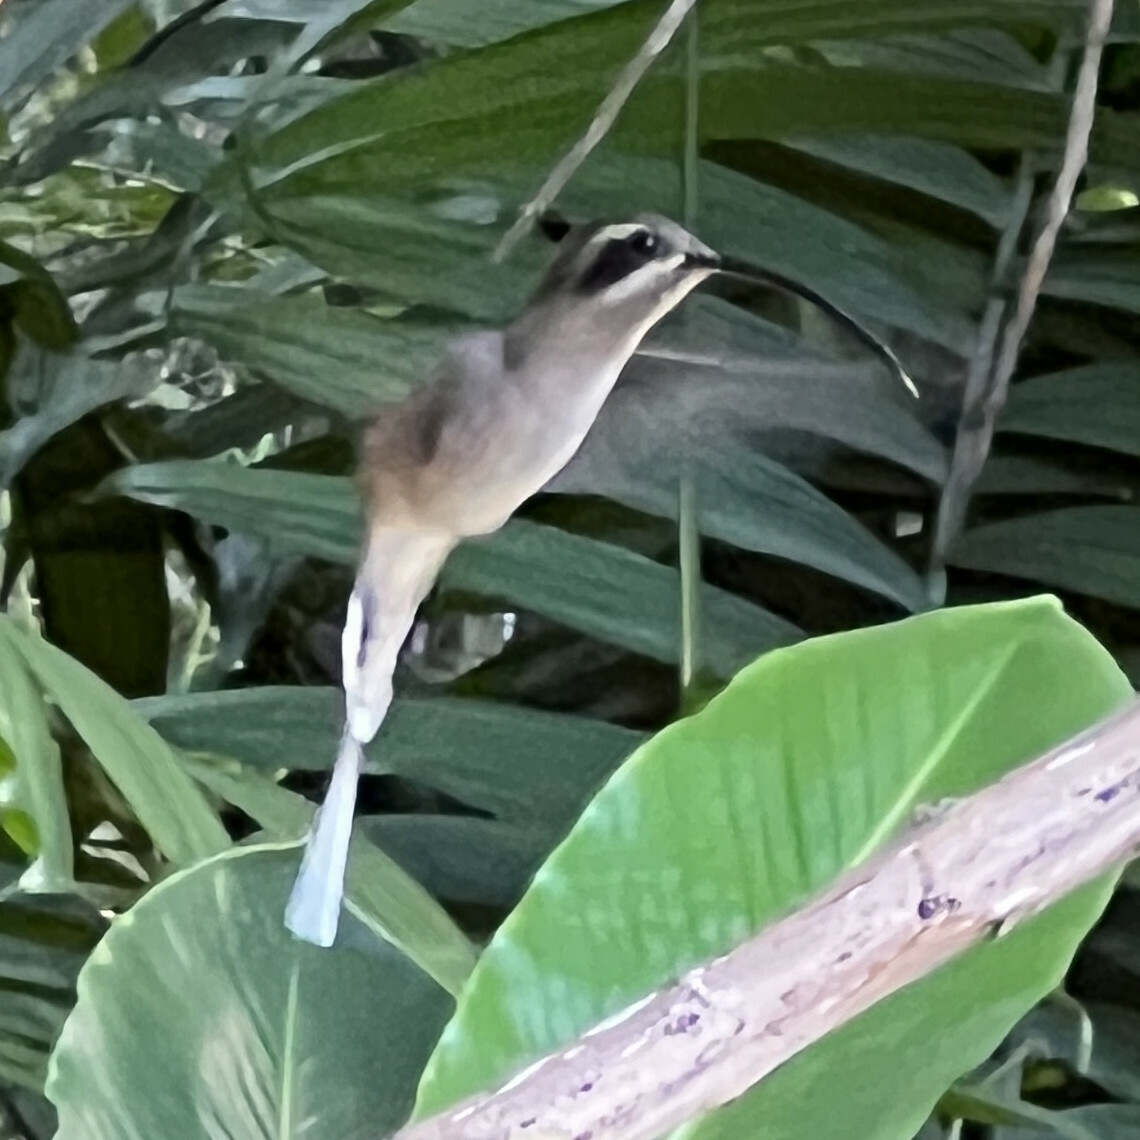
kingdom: Animalia
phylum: Chordata
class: Aves
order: Apodiformes
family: Trochilidae
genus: Phaethornis
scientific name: Phaethornis longirostris
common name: Long-billed hermit
